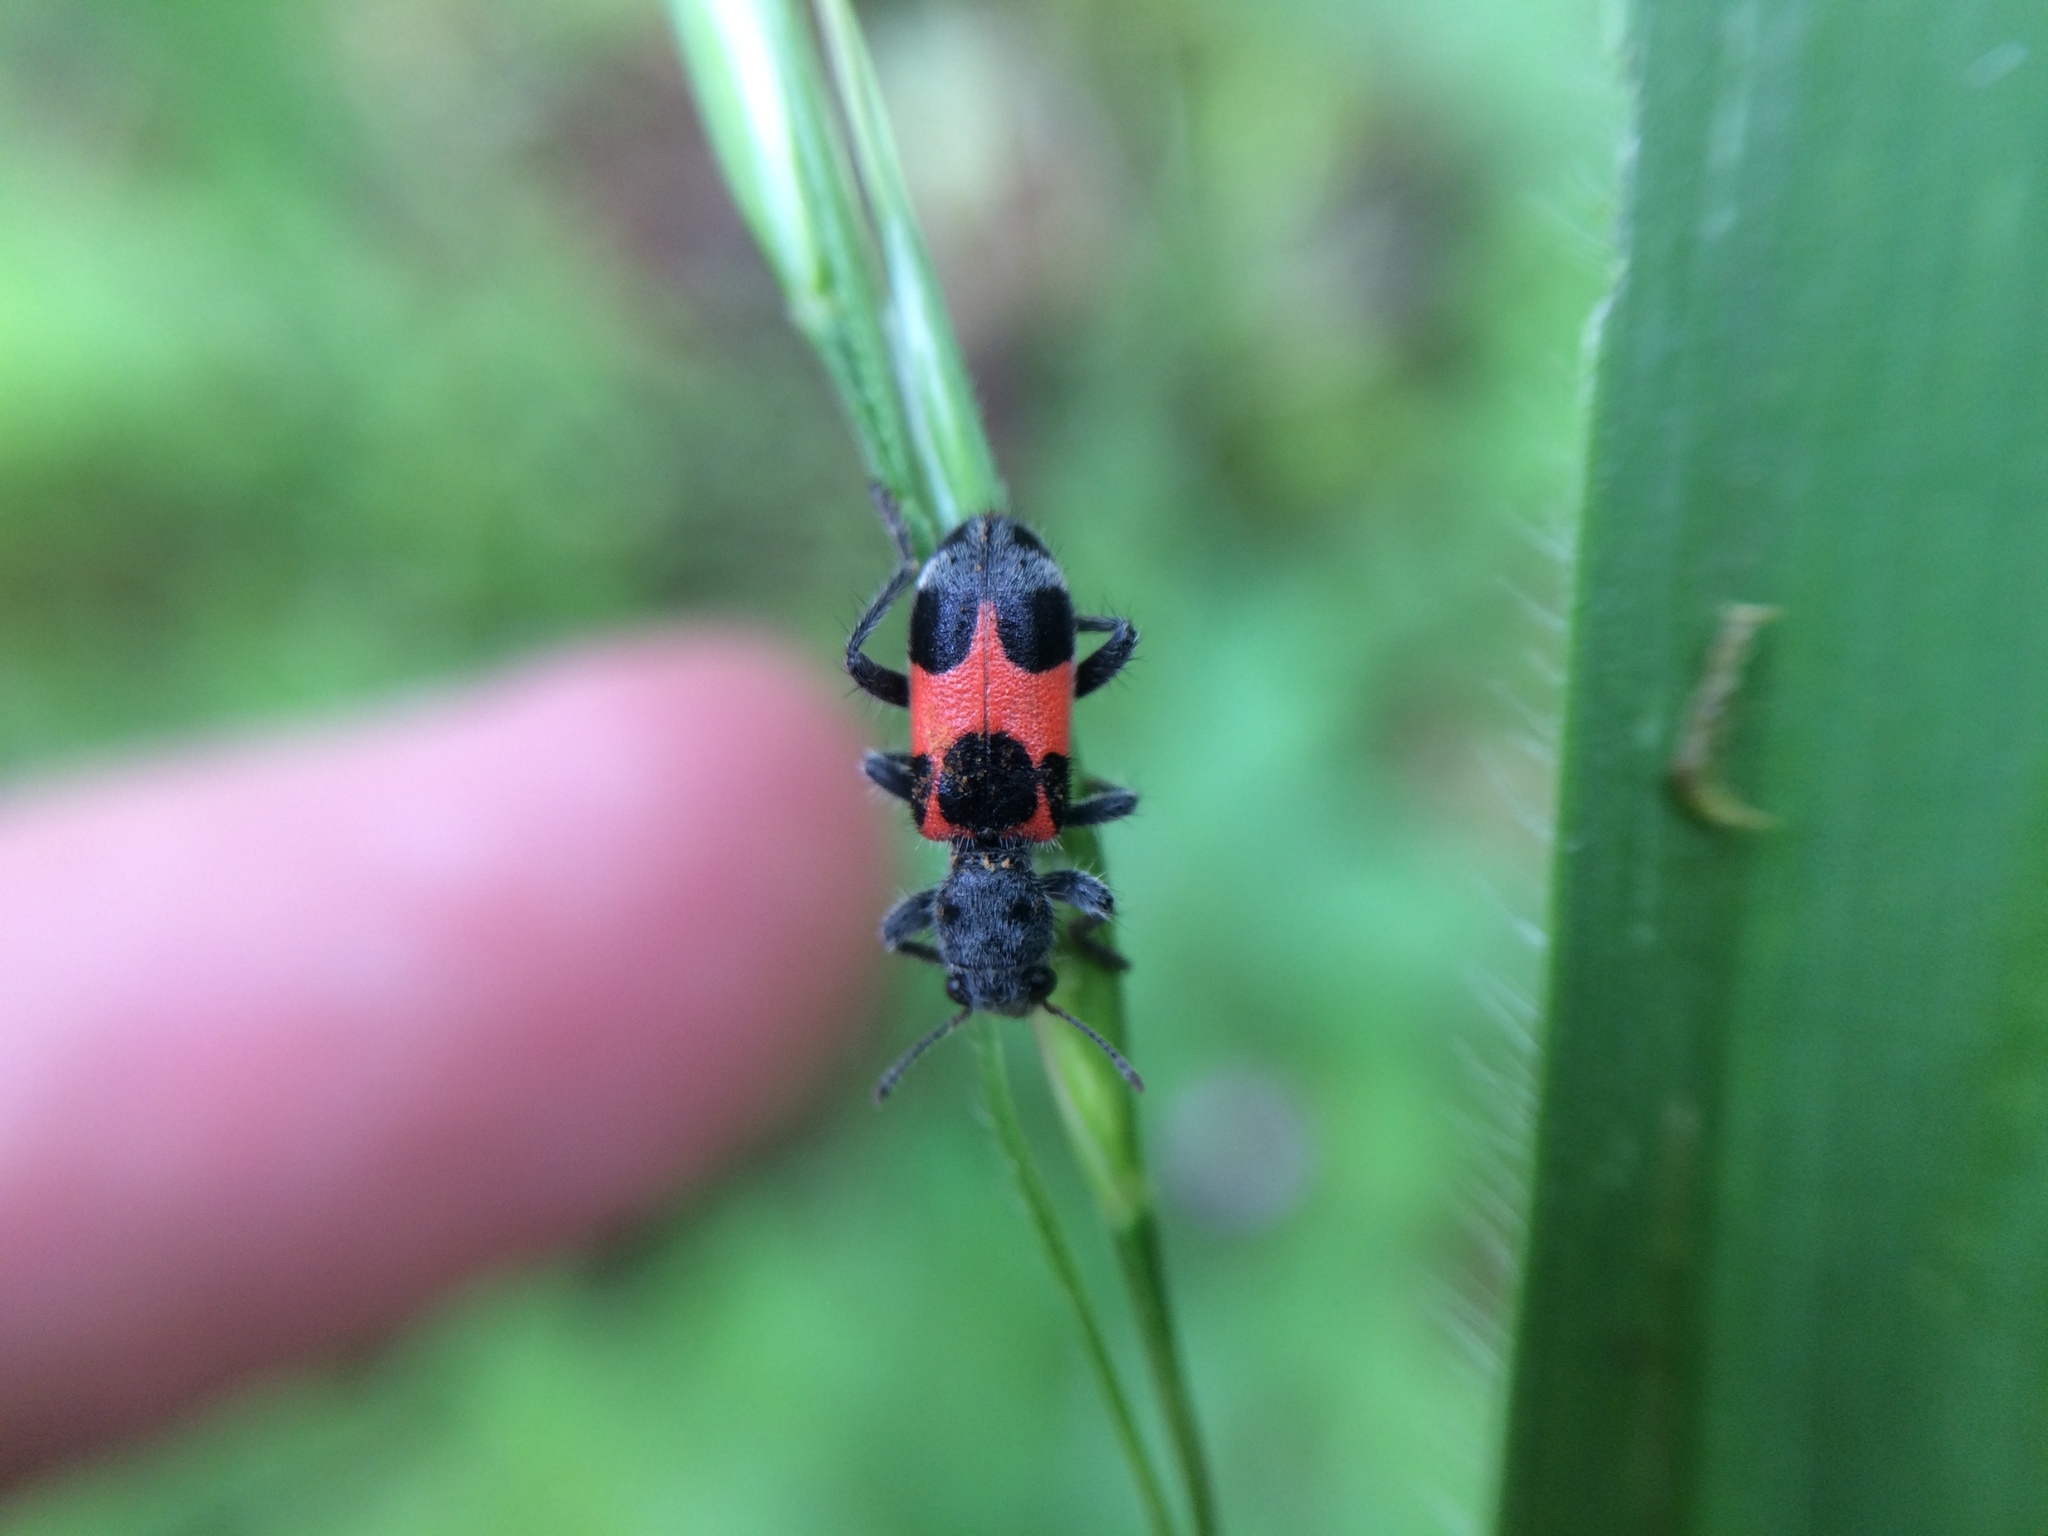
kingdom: Animalia
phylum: Arthropoda
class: Insecta
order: Coleoptera
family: Cleridae
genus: Enoclerus
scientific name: Enoclerus eximius
